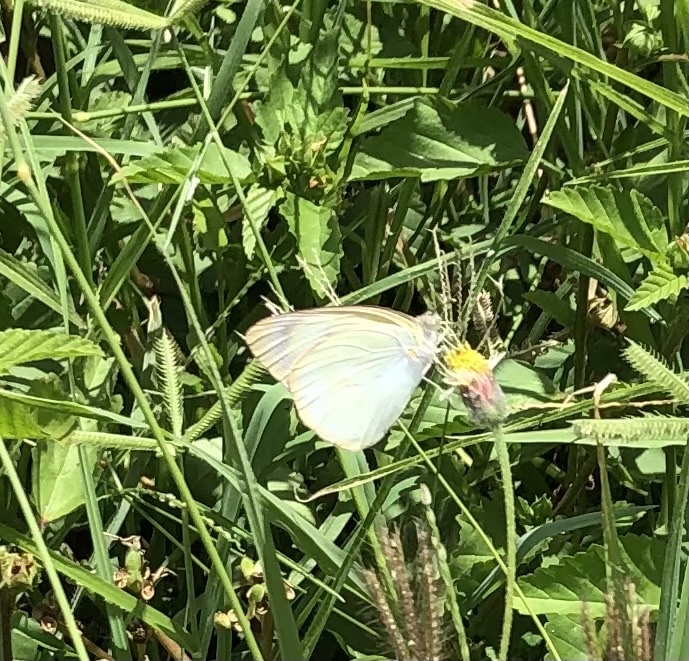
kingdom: Animalia
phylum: Arthropoda
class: Insecta
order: Lepidoptera
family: Pieridae
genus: Ascia
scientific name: Ascia monuste
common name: Great southern white
